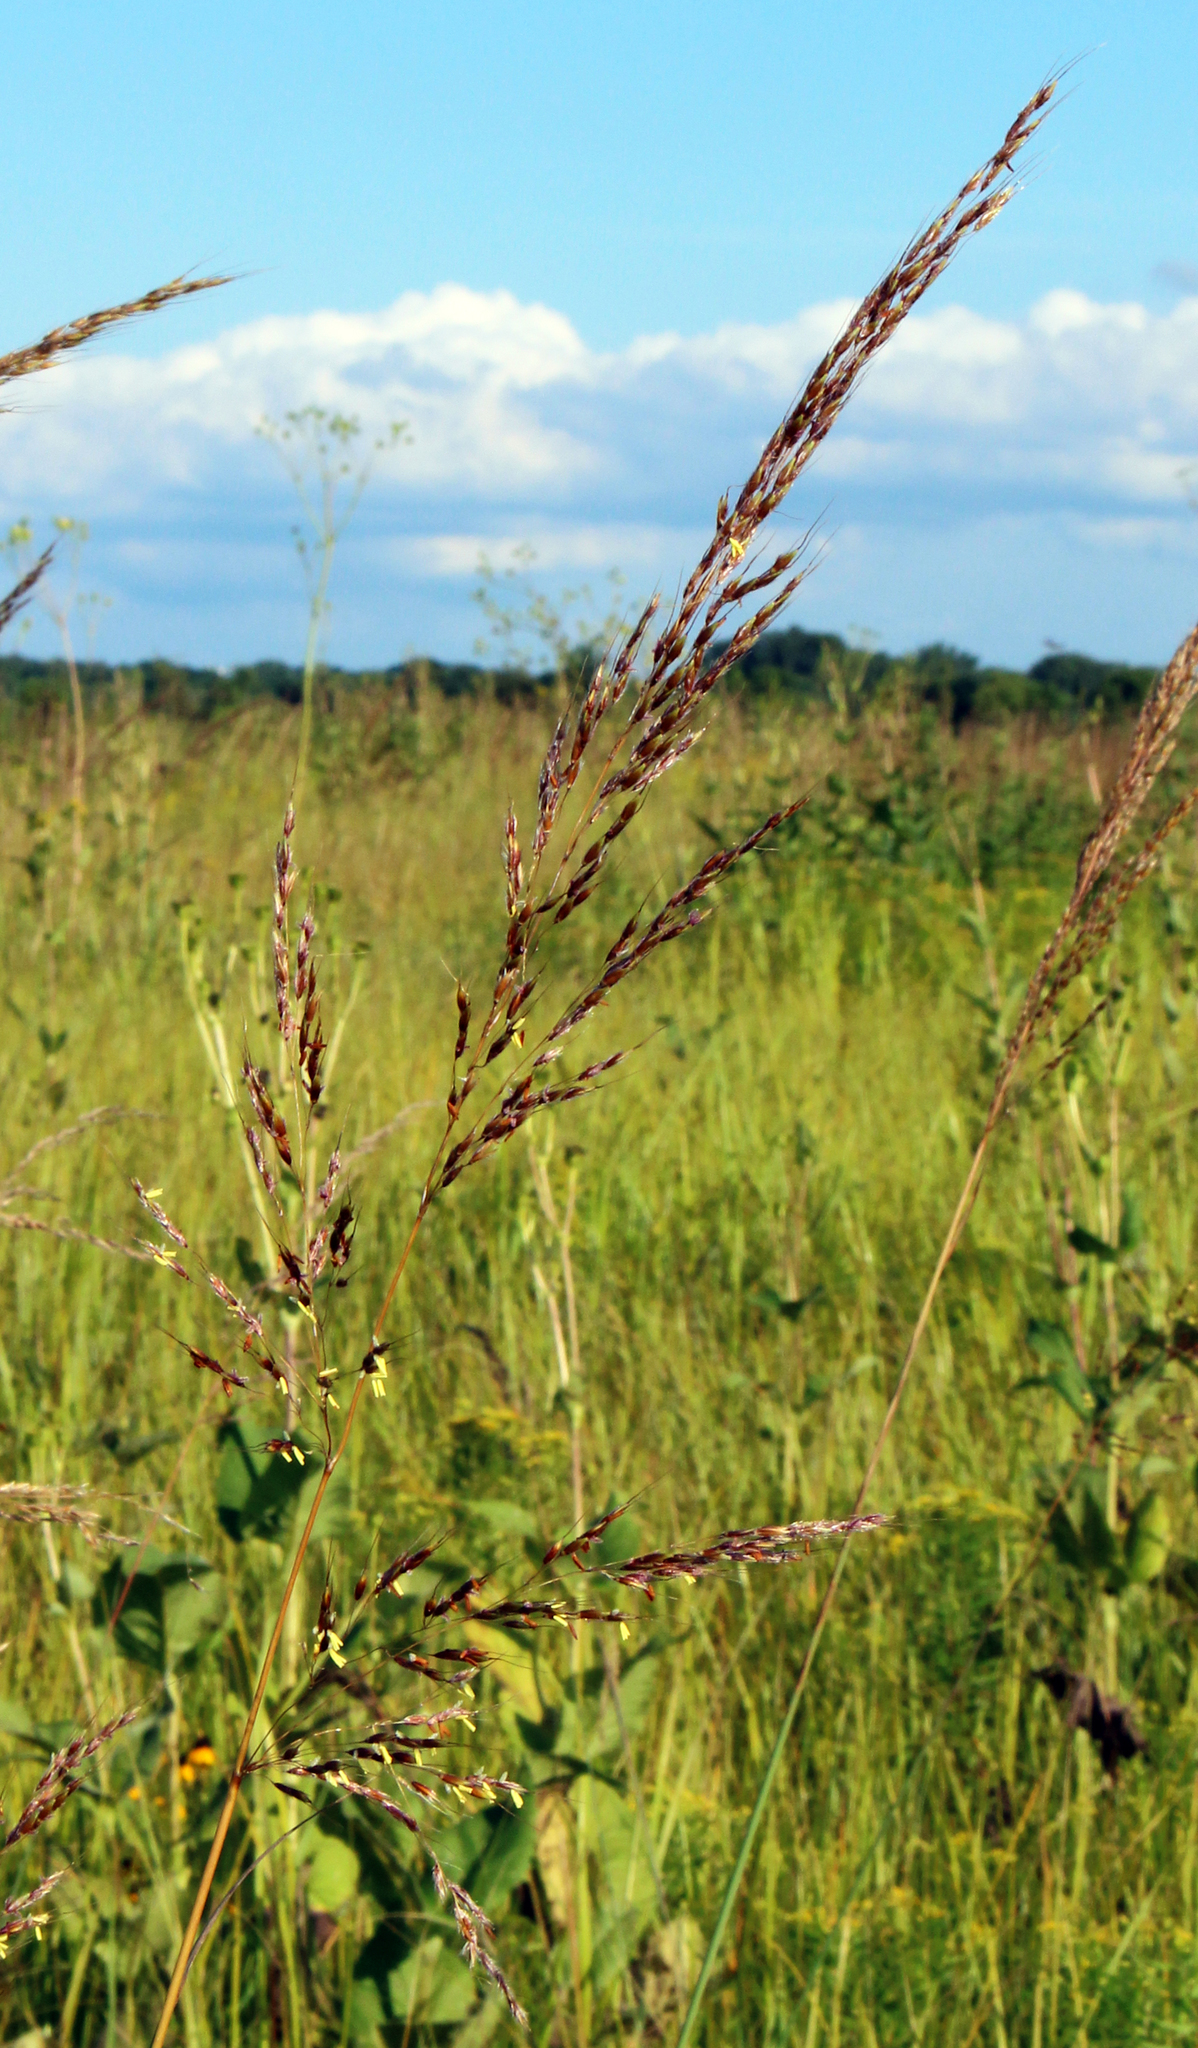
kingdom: Plantae
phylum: Tracheophyta
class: Liliopsida
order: Poales
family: Poaceae
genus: Sorghastrum
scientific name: Sorghastrum nutans
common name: Indian grass
